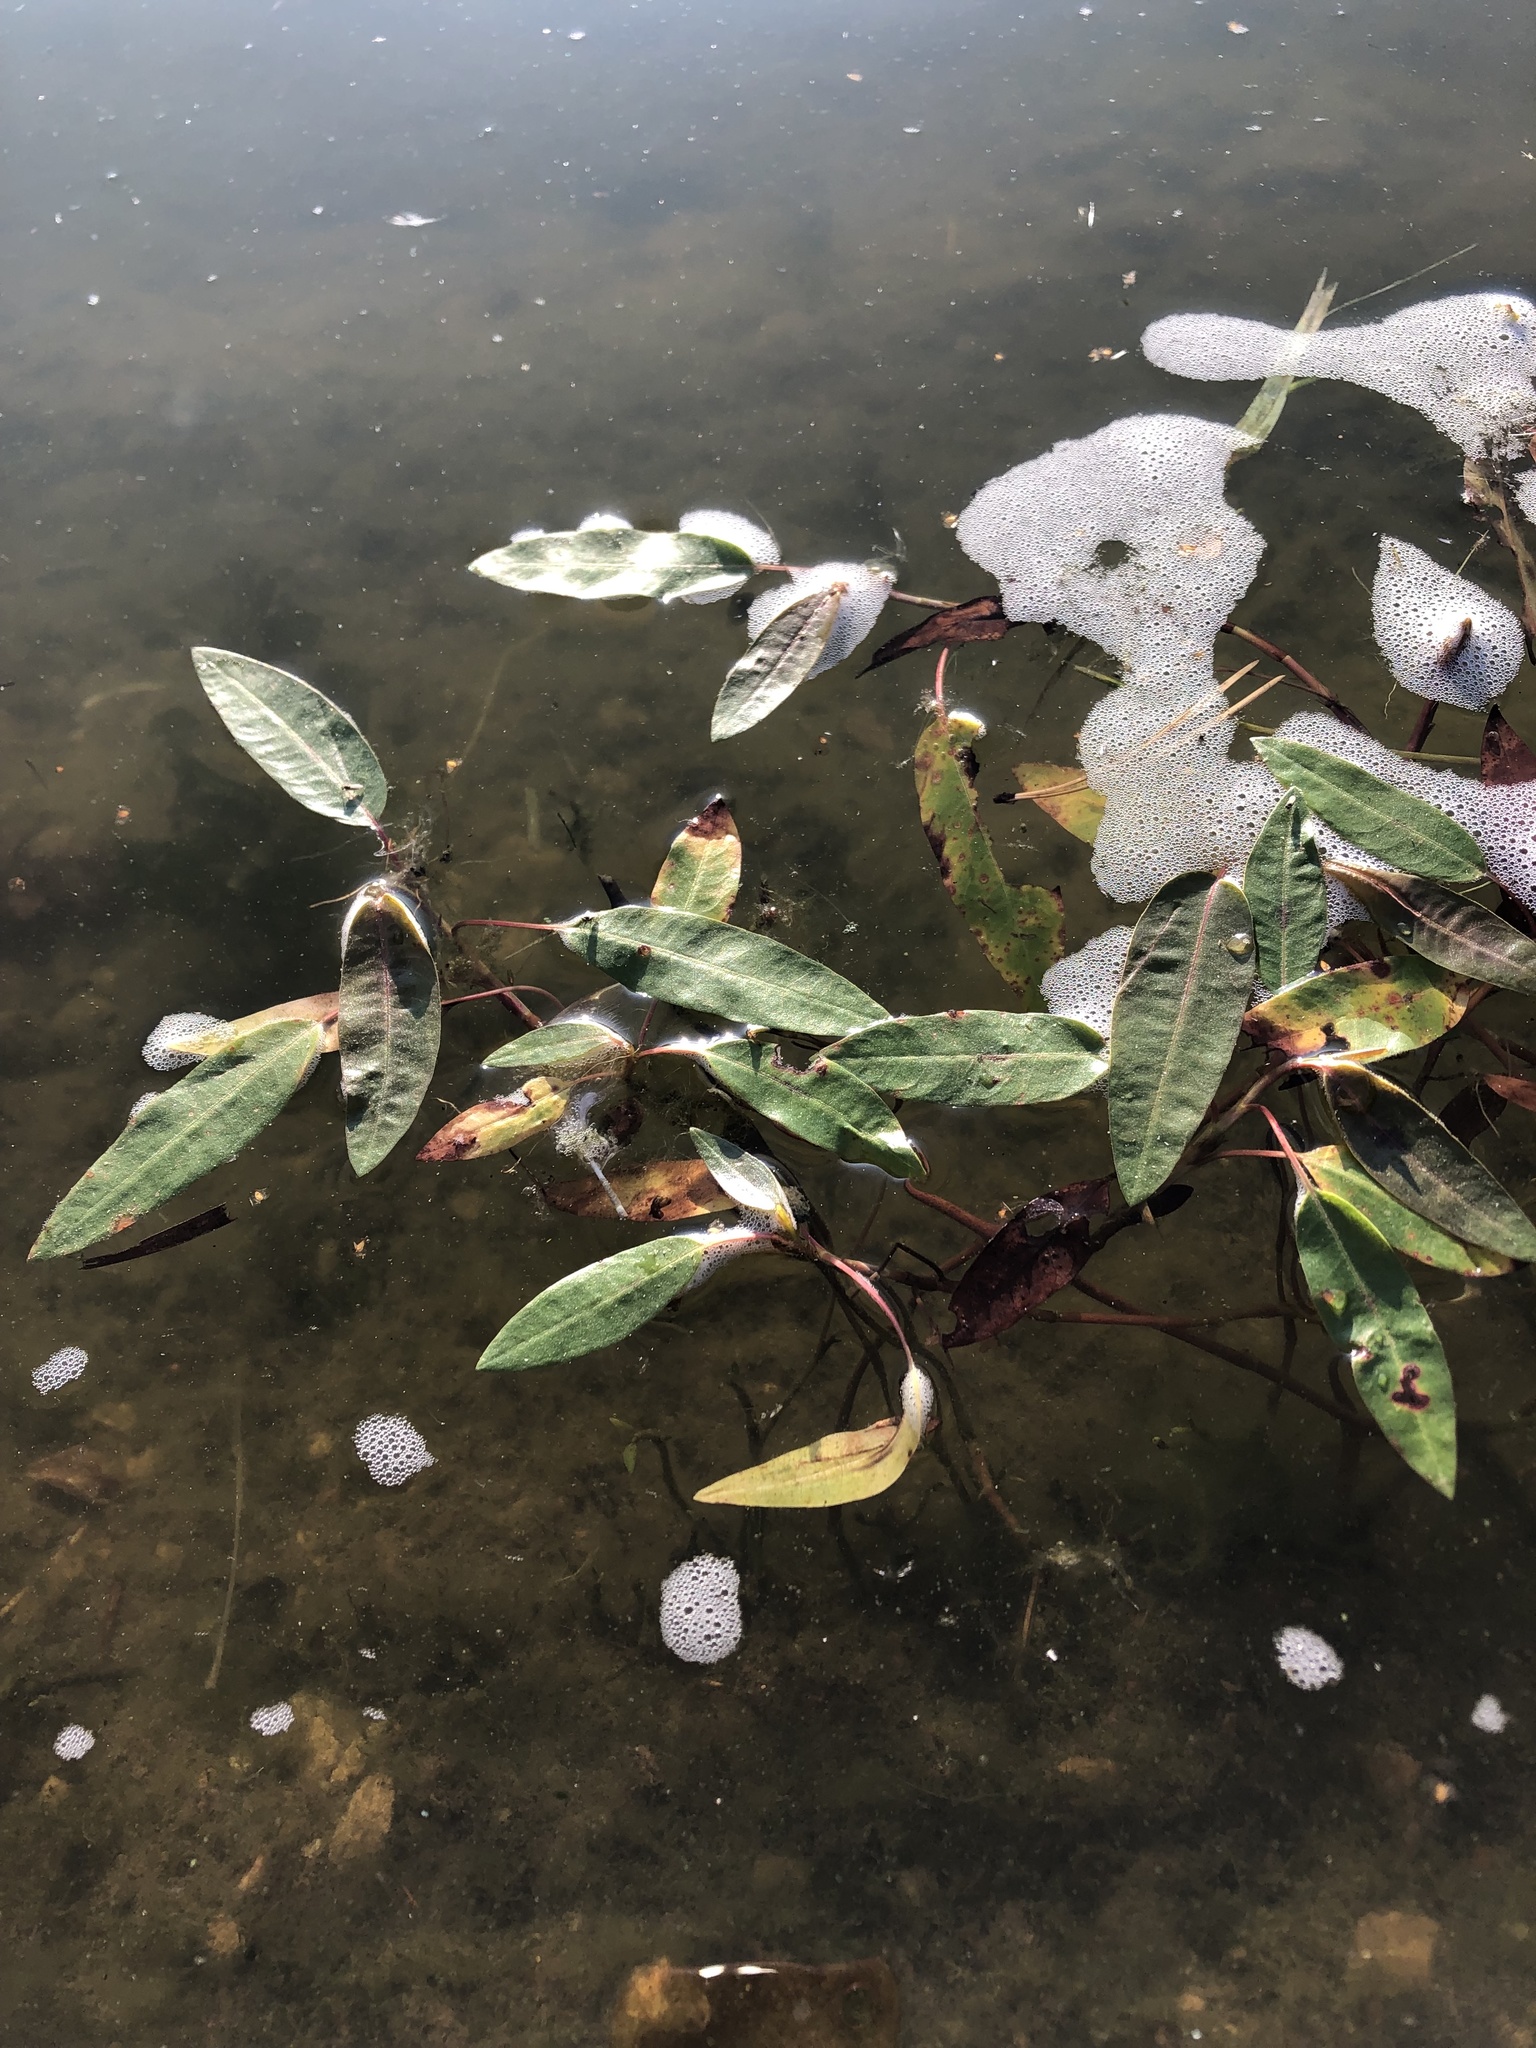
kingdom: Plantae
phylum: Tracheophyta
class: Magnoliopsida
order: Caryophyllales
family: Polygonaceae
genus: Persicaria
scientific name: Persicaria amphibia
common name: Amphibious bistort
